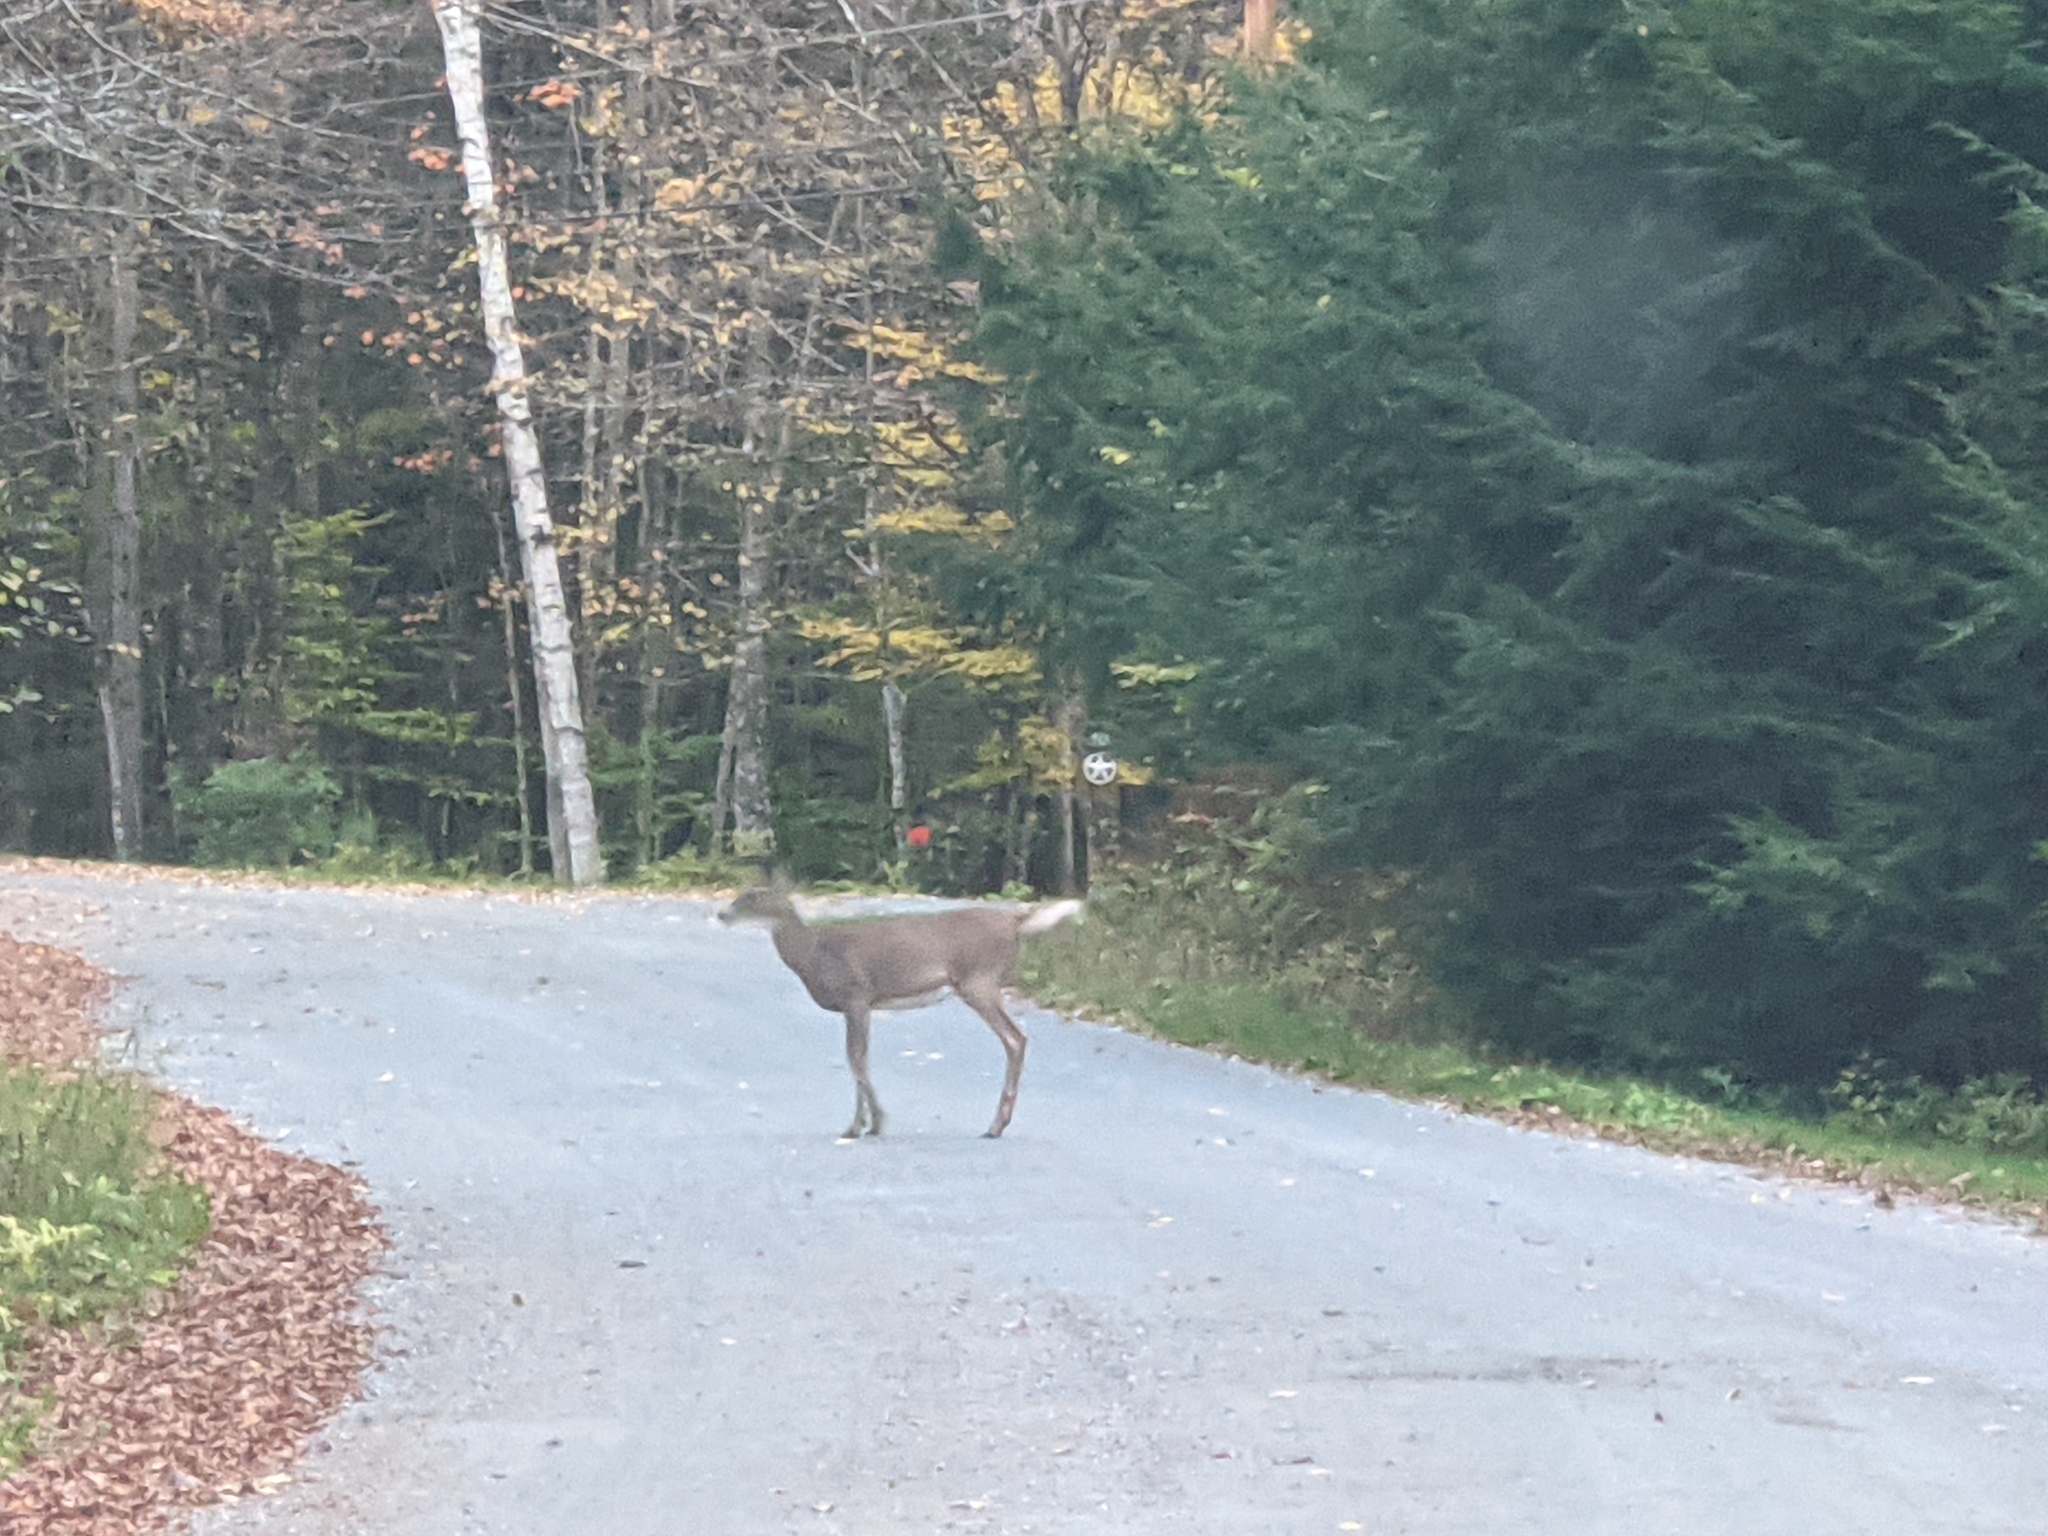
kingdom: Animalia
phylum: Chordata
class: Mammalia
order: Artiodactyla
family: Cervidae
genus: Odocoileus
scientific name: Odocoileus virginianus
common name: White-tailed deer
